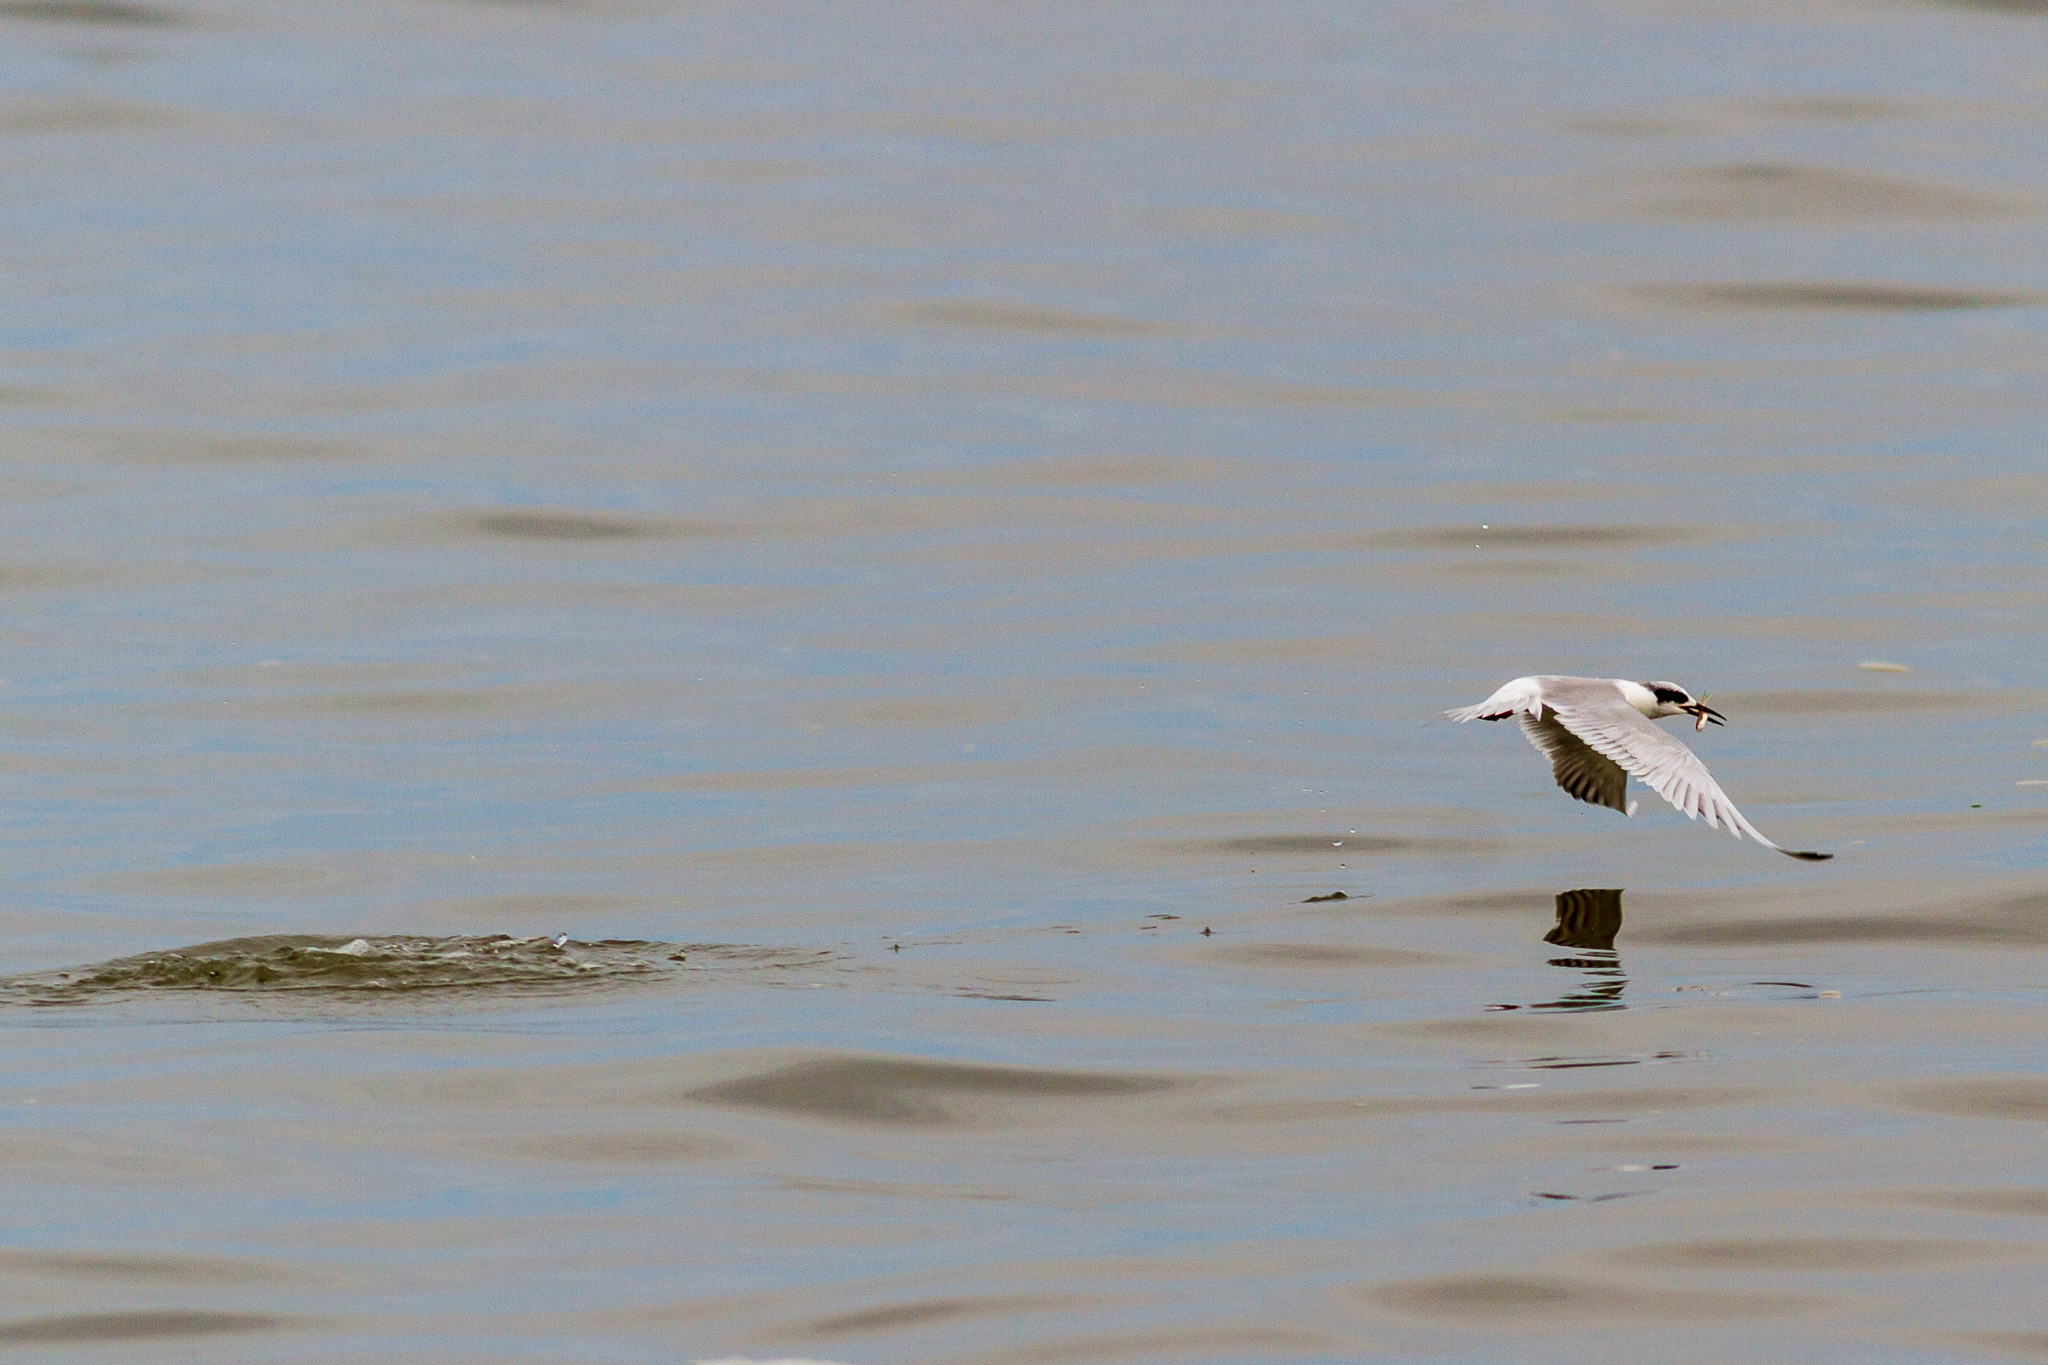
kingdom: Animalia
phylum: Chordata
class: Aves
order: Charadriiformes
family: Laridae
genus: Sterna
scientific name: Sterna forsteri
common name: Forster's tern
